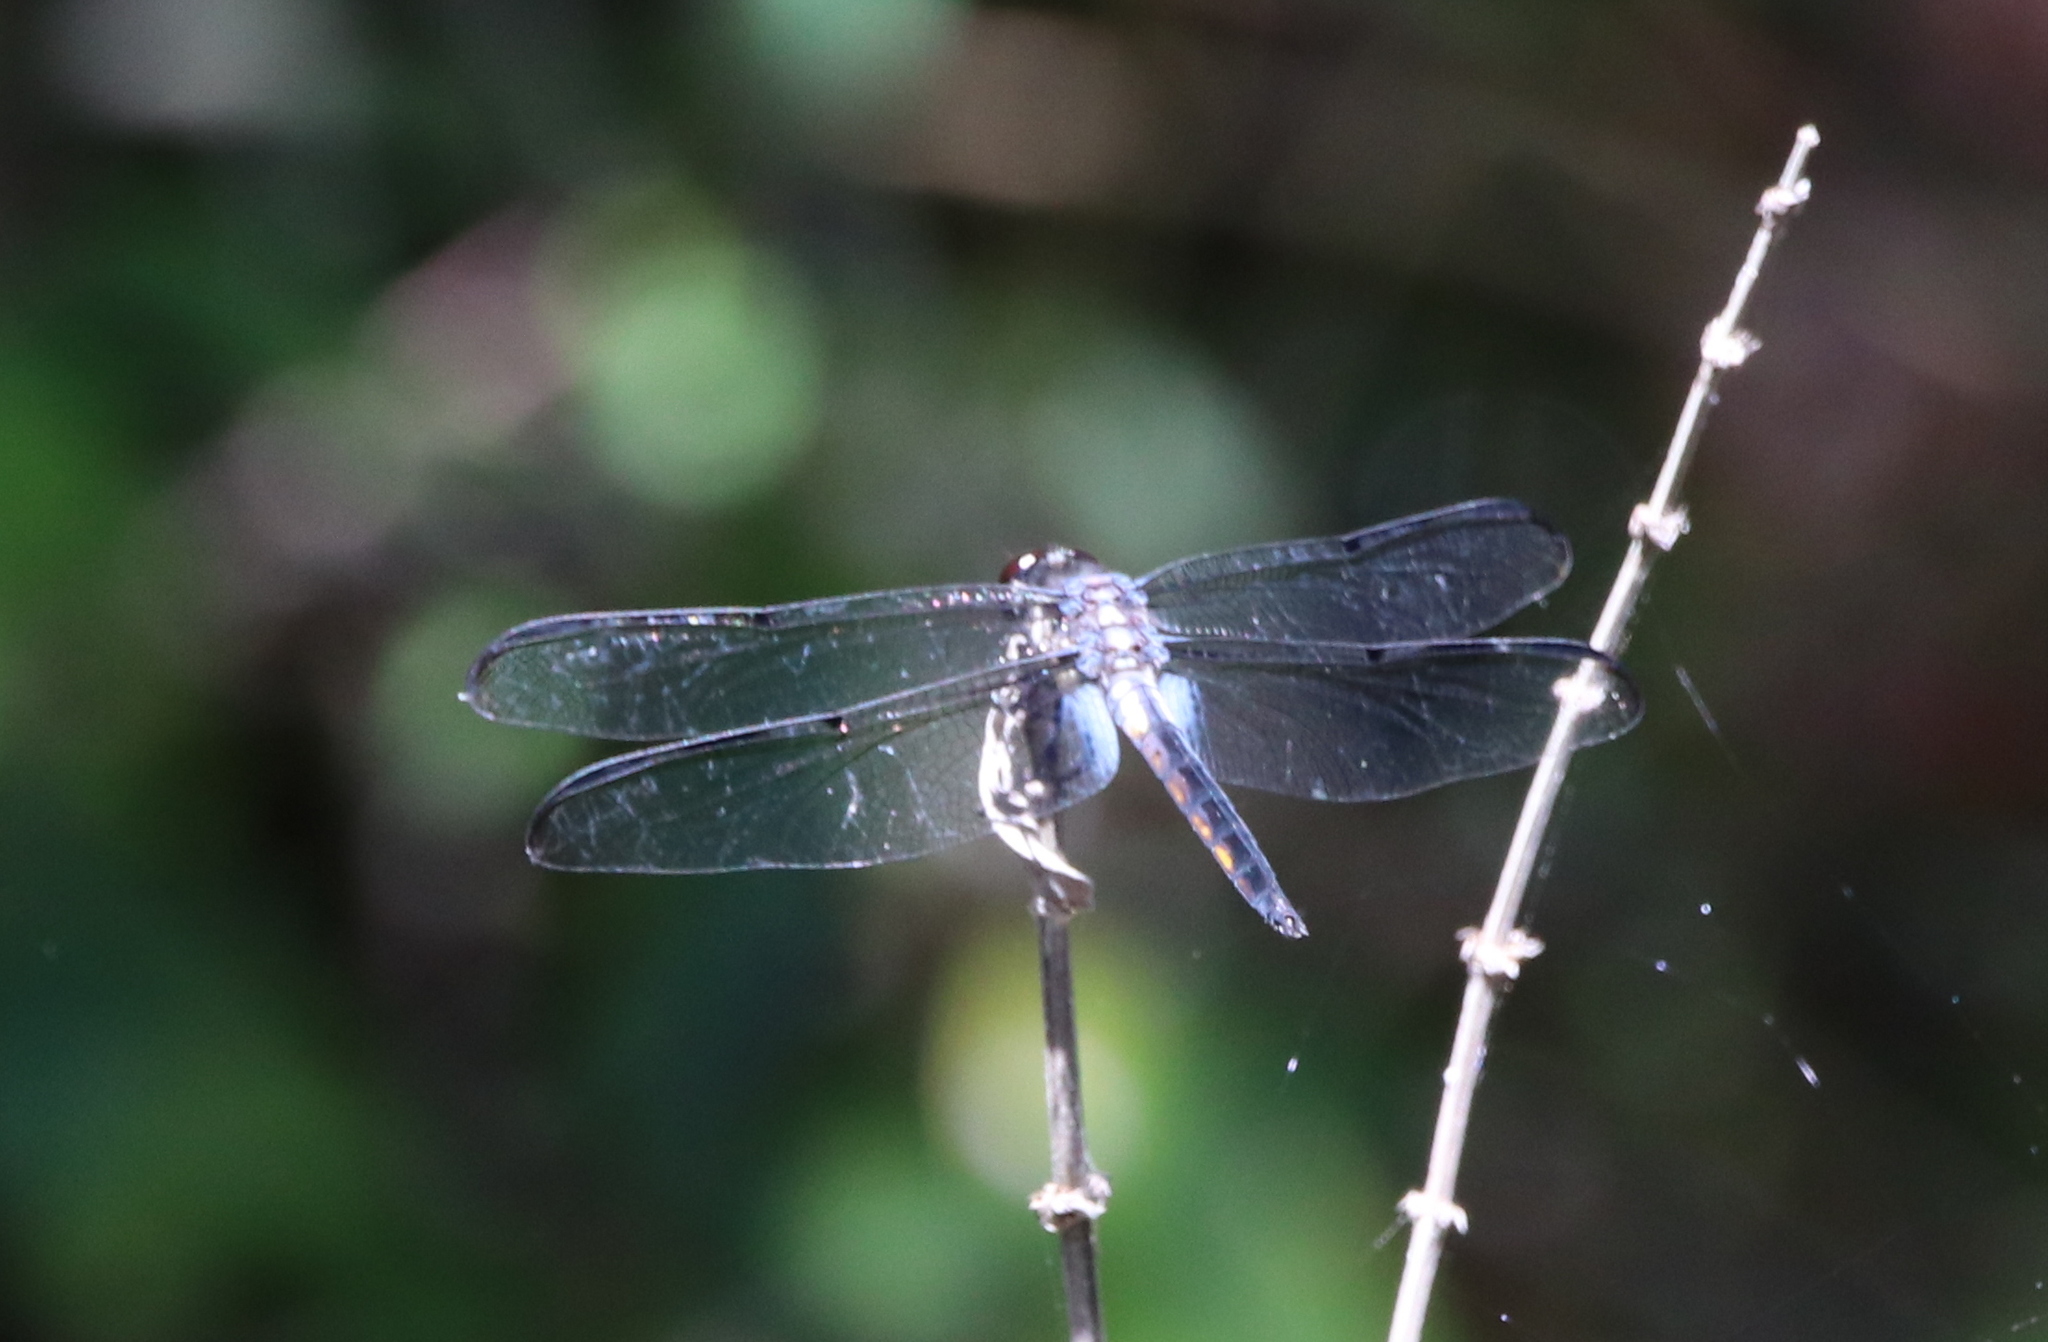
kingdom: Animalia
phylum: Arthropoda
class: Insecta
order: Odonata
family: Libellulidae
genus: Libellula
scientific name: Libellula axilena
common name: Bar-winged skimmer
